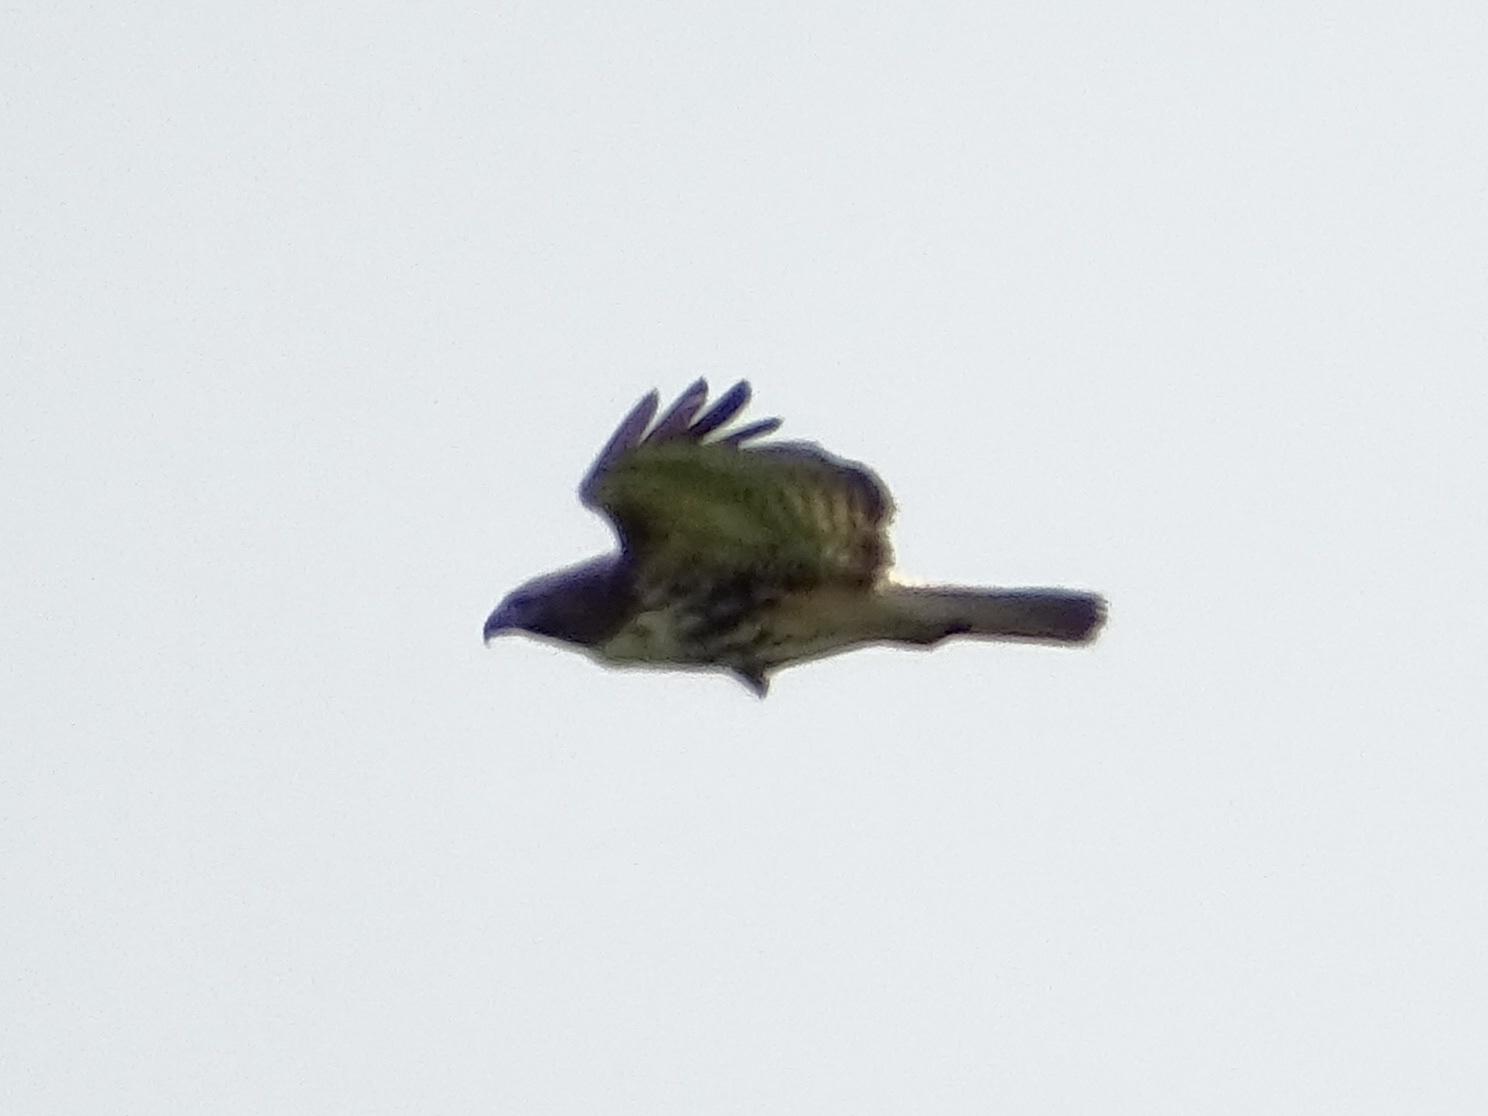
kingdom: Animalia
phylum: Chordata
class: Aves
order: Accipitriformes
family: Accipitridae
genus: Buteo
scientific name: Buteo jamaicensis
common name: Red-tailed hawk
